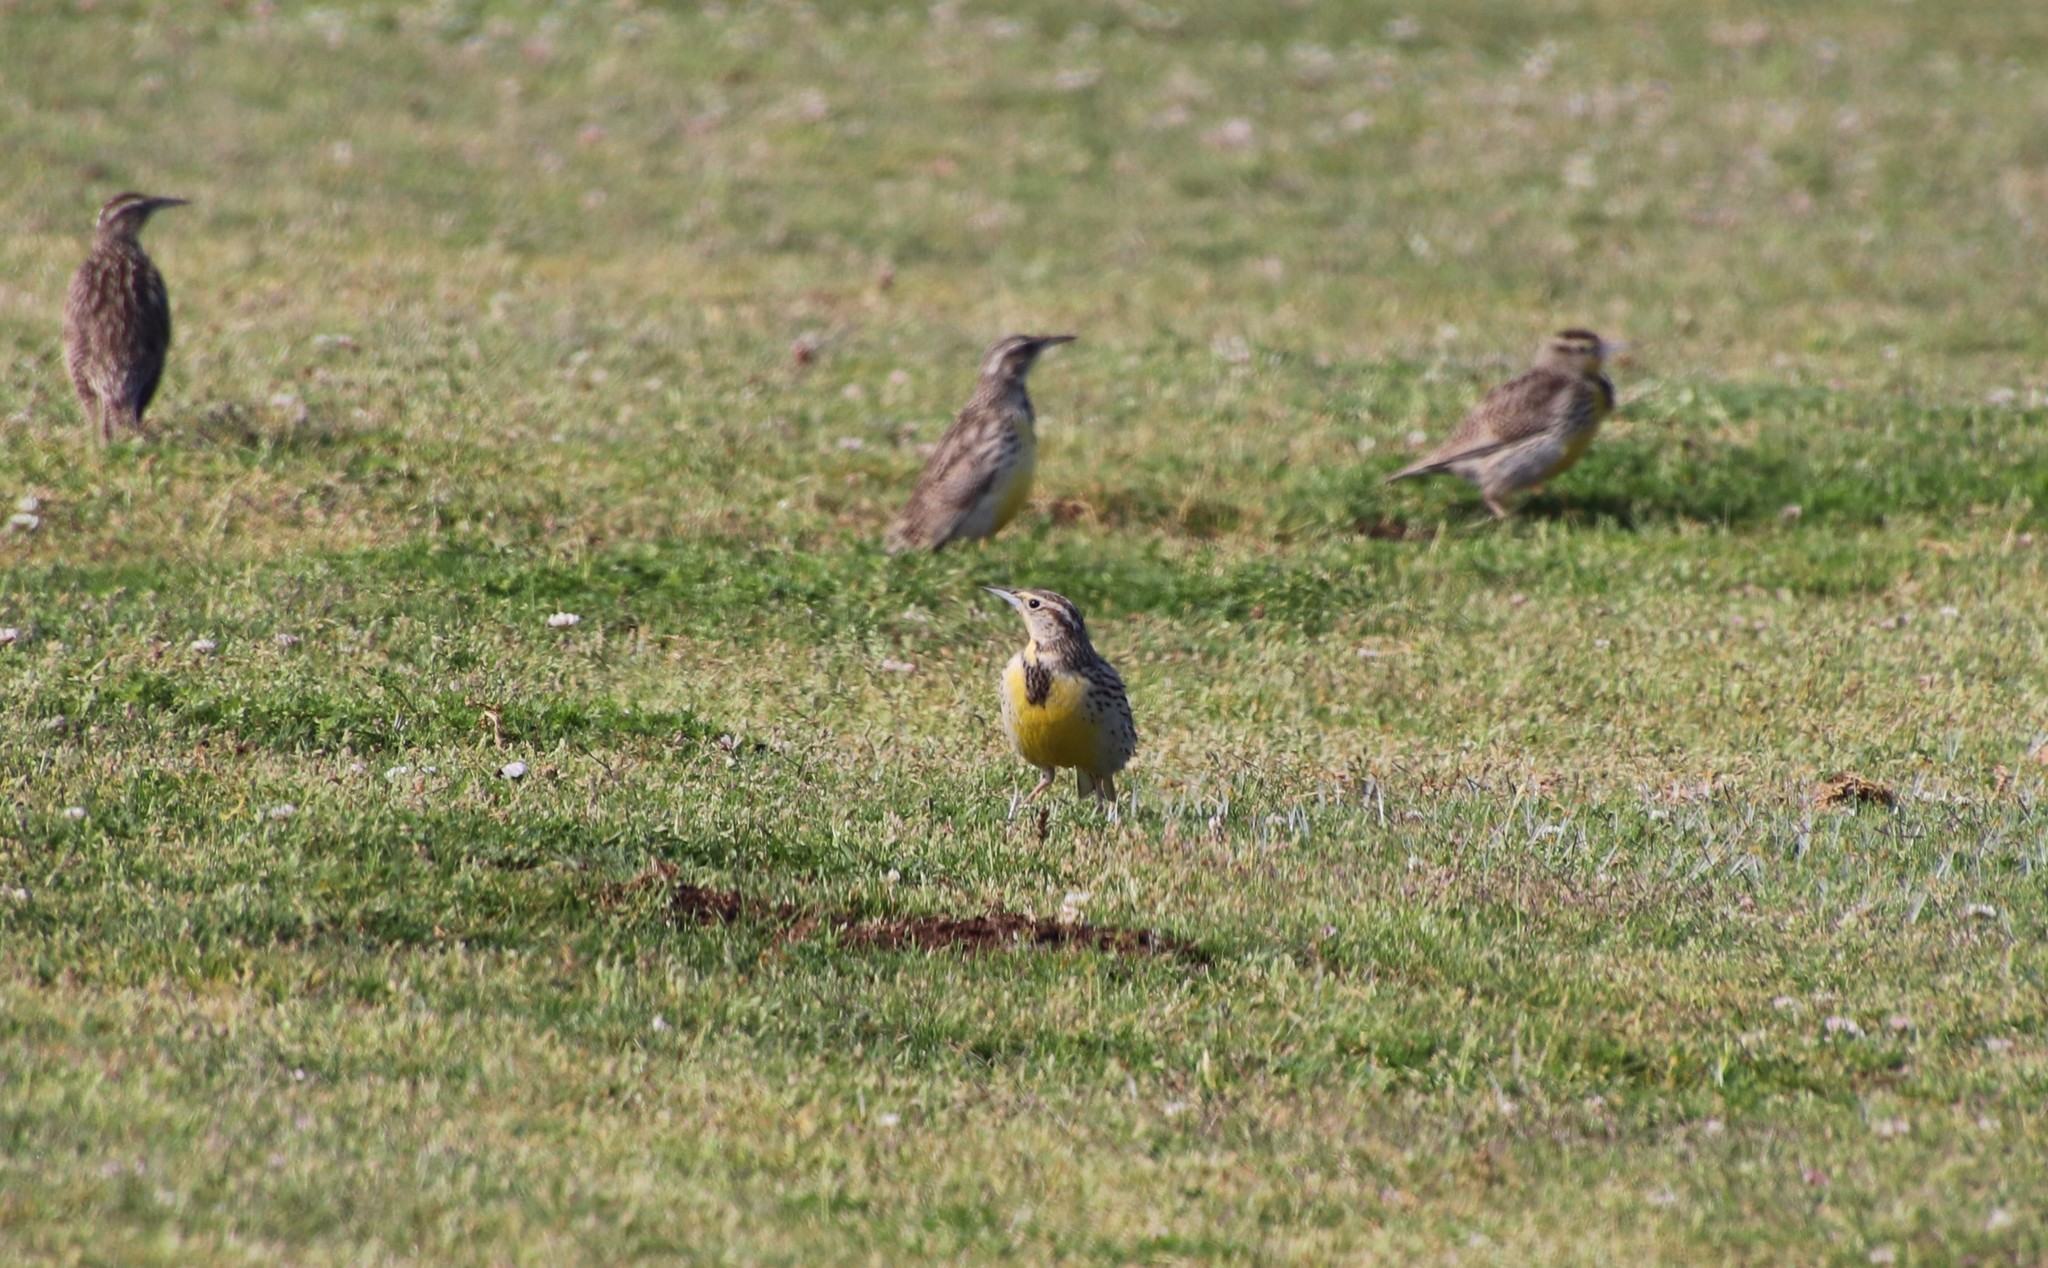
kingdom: Animalia
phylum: Chordata
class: Aves
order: Passeriformes
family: Icteridae
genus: Sturnella
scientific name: Sturnella neglecta
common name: Western meadowlark
